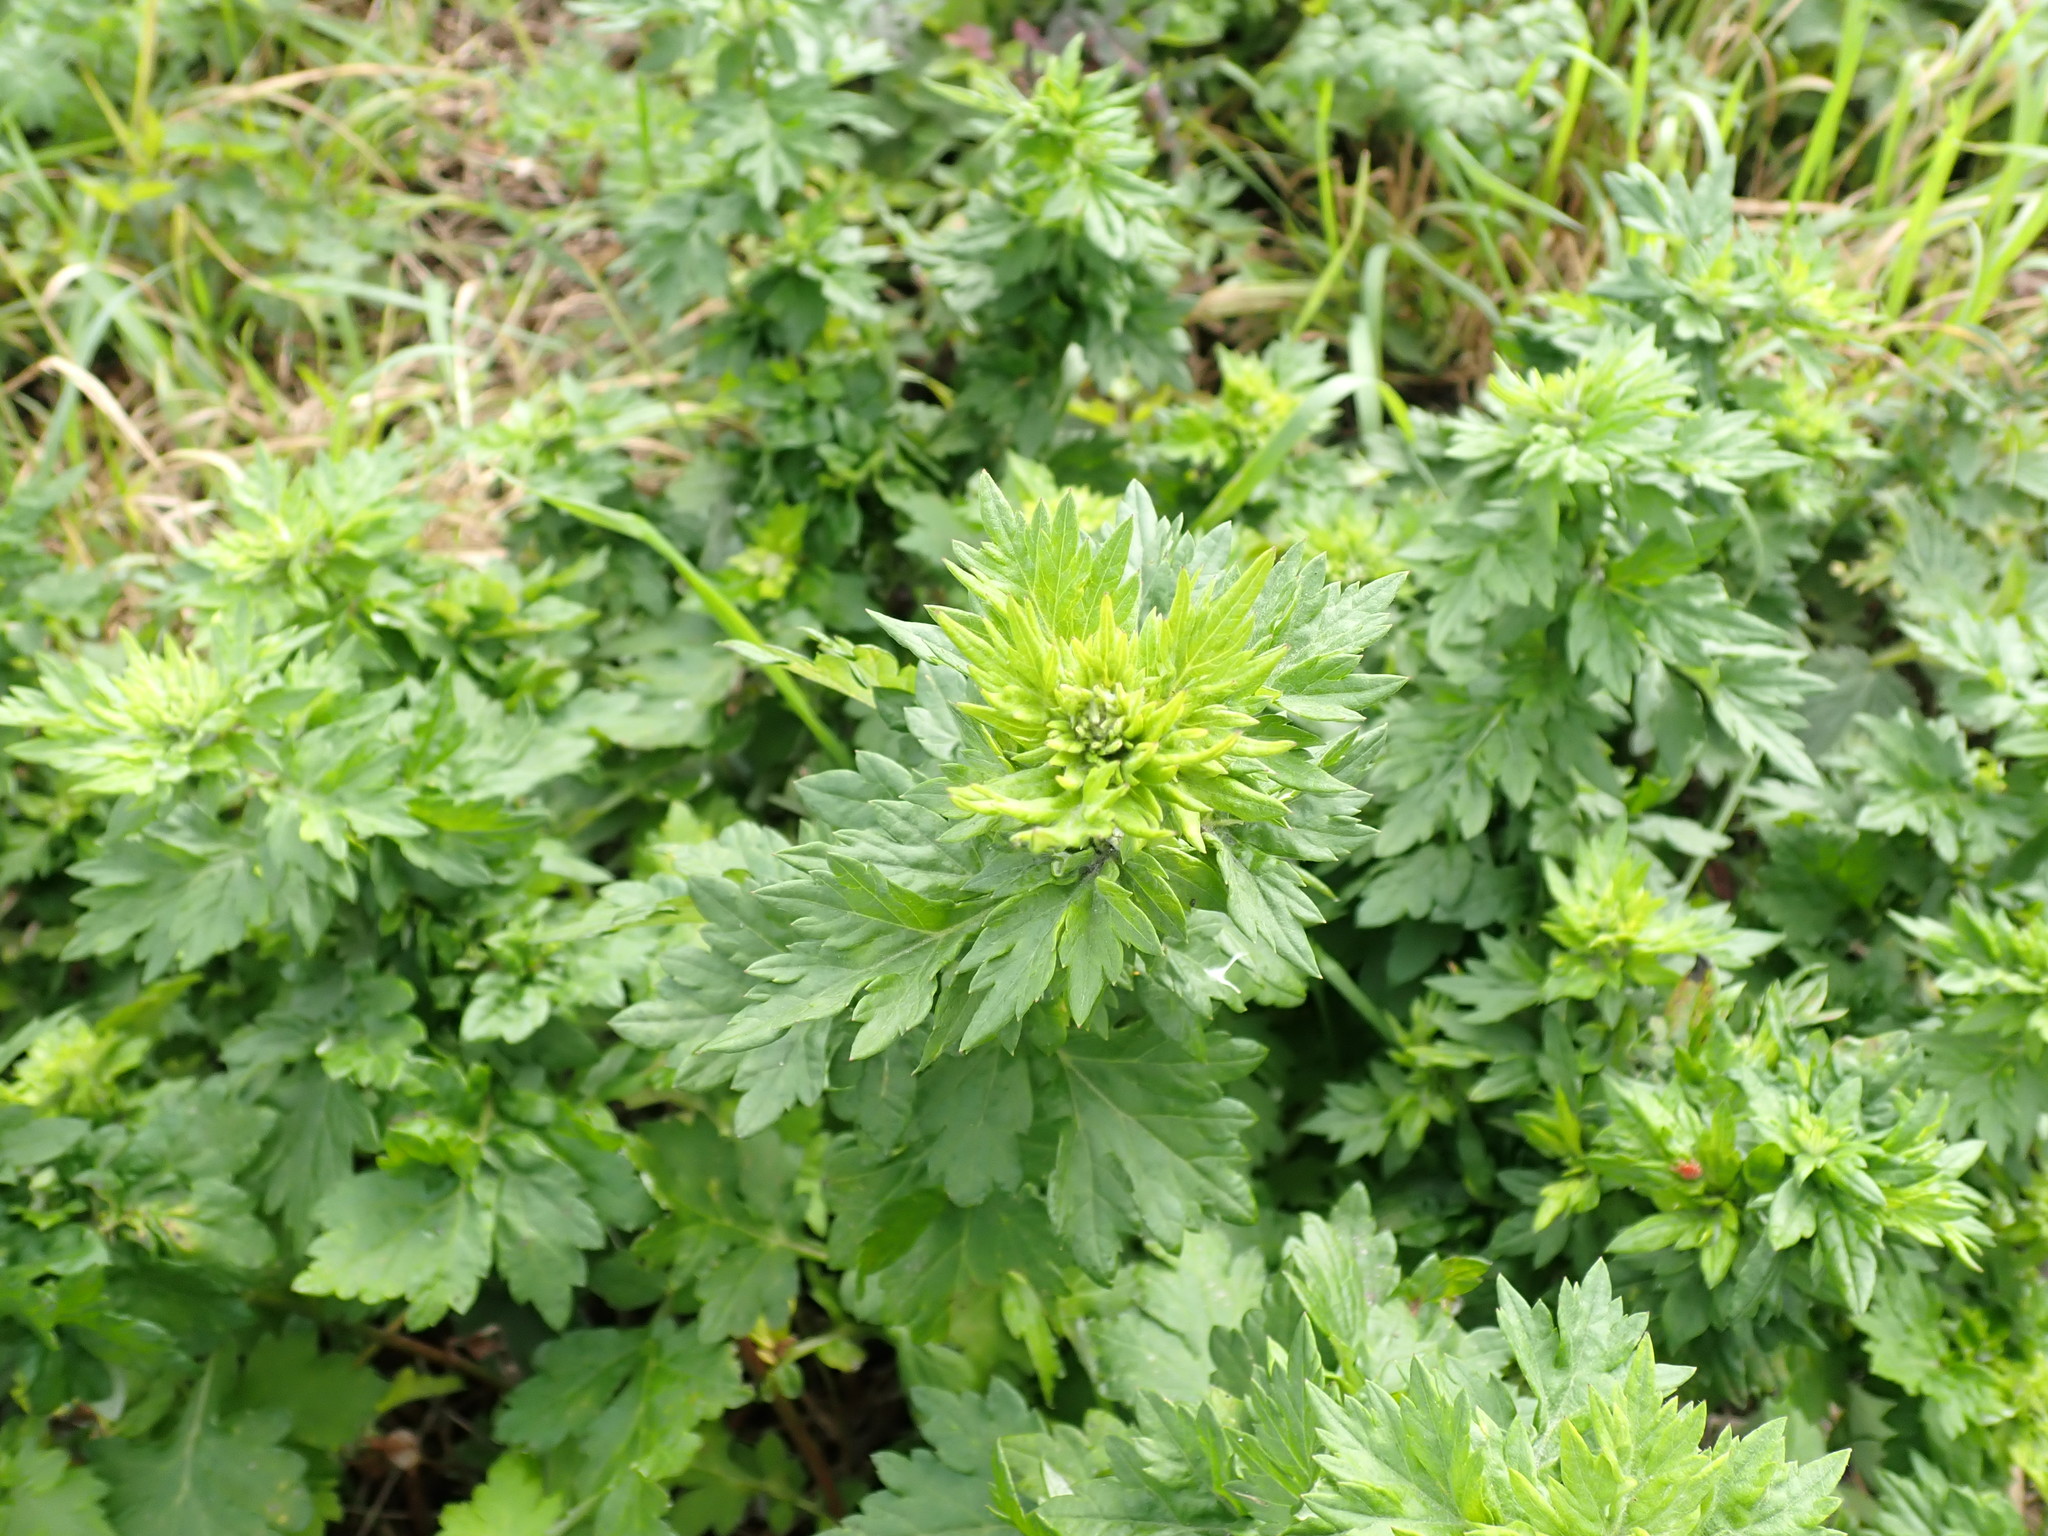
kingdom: Plantae
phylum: Tracheophyta
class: Magnoliopsida
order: Asterales
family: Asteraceae
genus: Artemisia
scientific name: Artemisia vulgaris
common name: Mugwort
